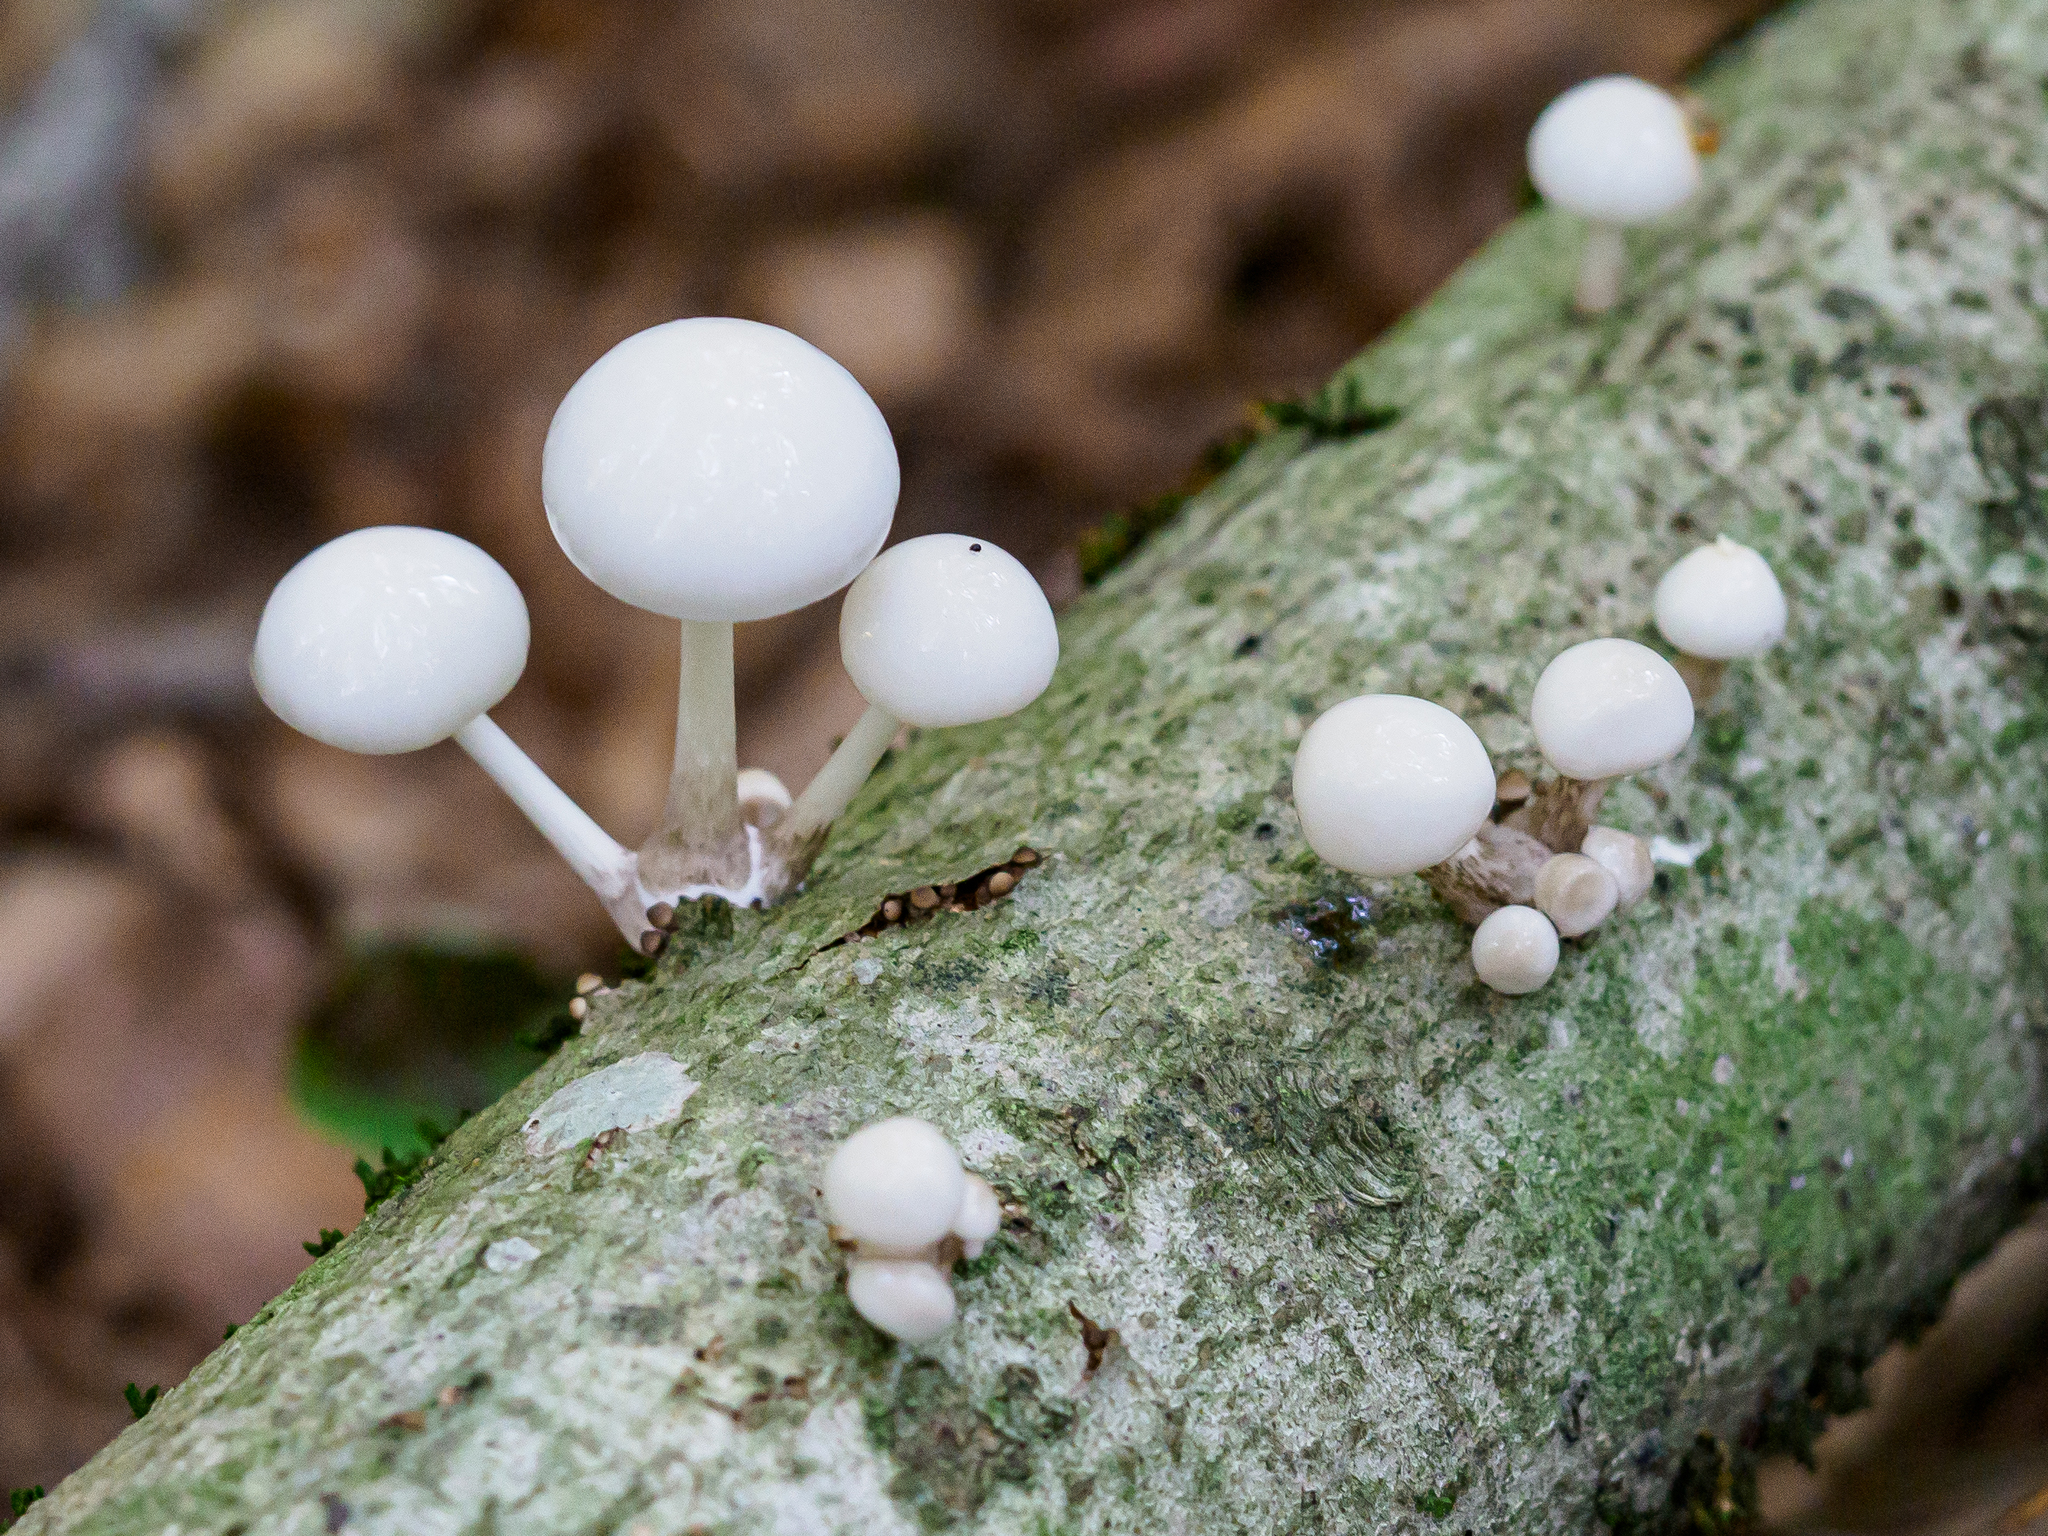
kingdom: Fungi
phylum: Basidiomycota
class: Agaricomycetes
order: Agaricales
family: Physalacriaceae
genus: Mucidula
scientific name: Mucidula mucida
